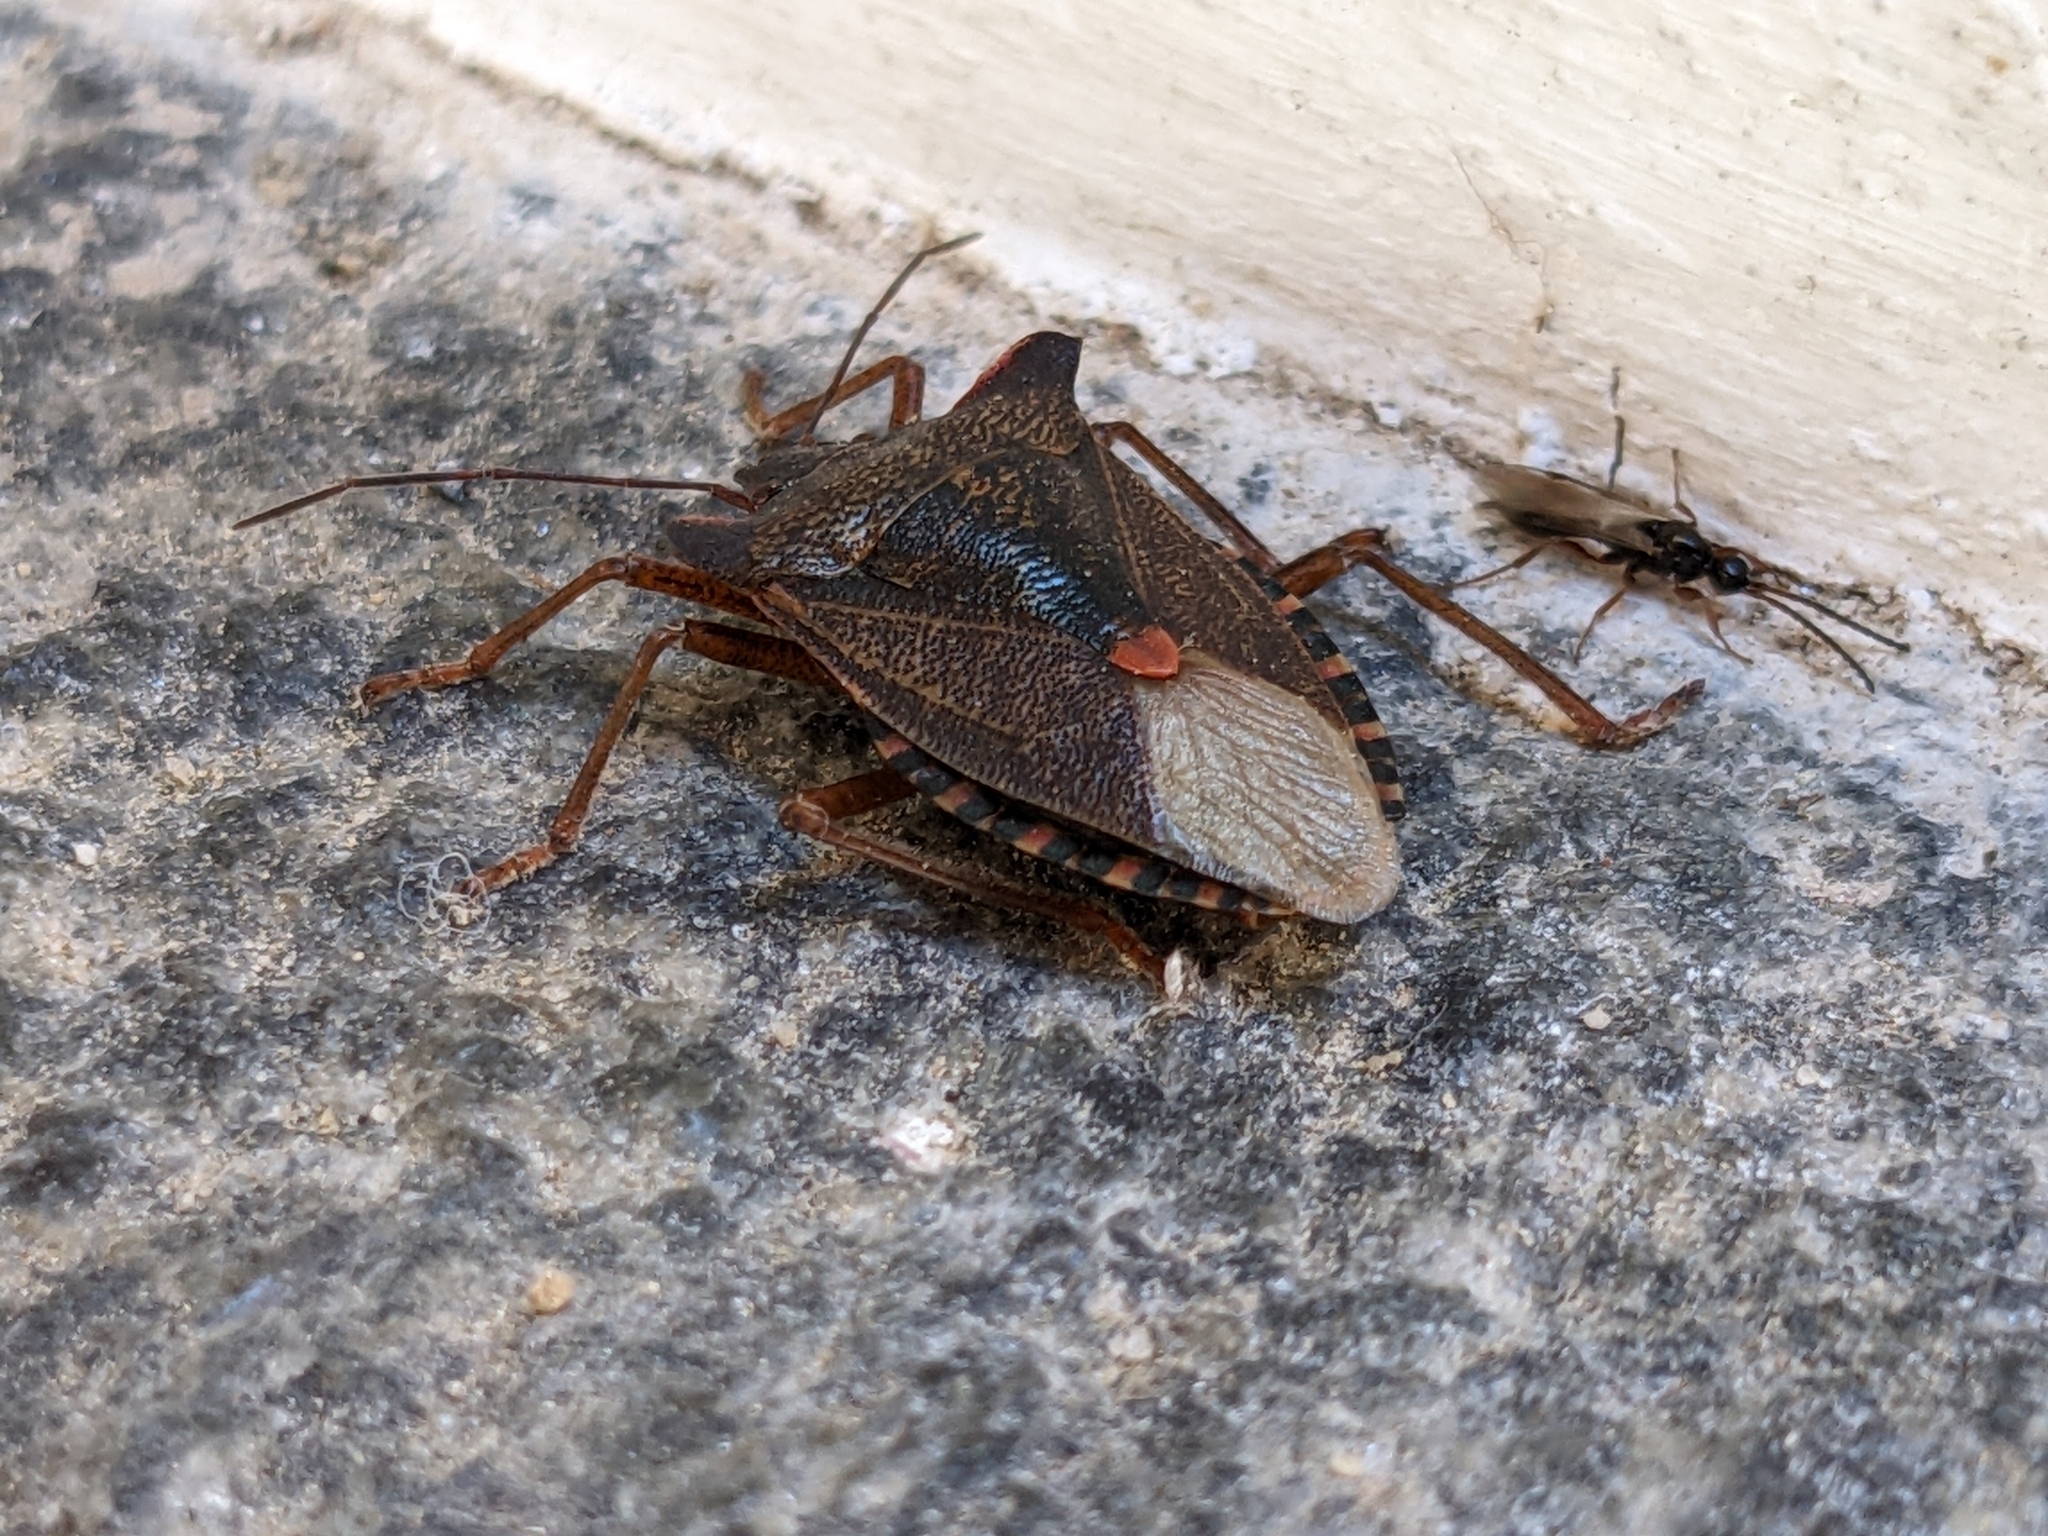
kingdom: Animalia
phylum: Arthropoda
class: Insecta
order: Hemiptera
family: Pentatomidae
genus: Pentatoma
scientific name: Pentatoma rufipes
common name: Forest bug
